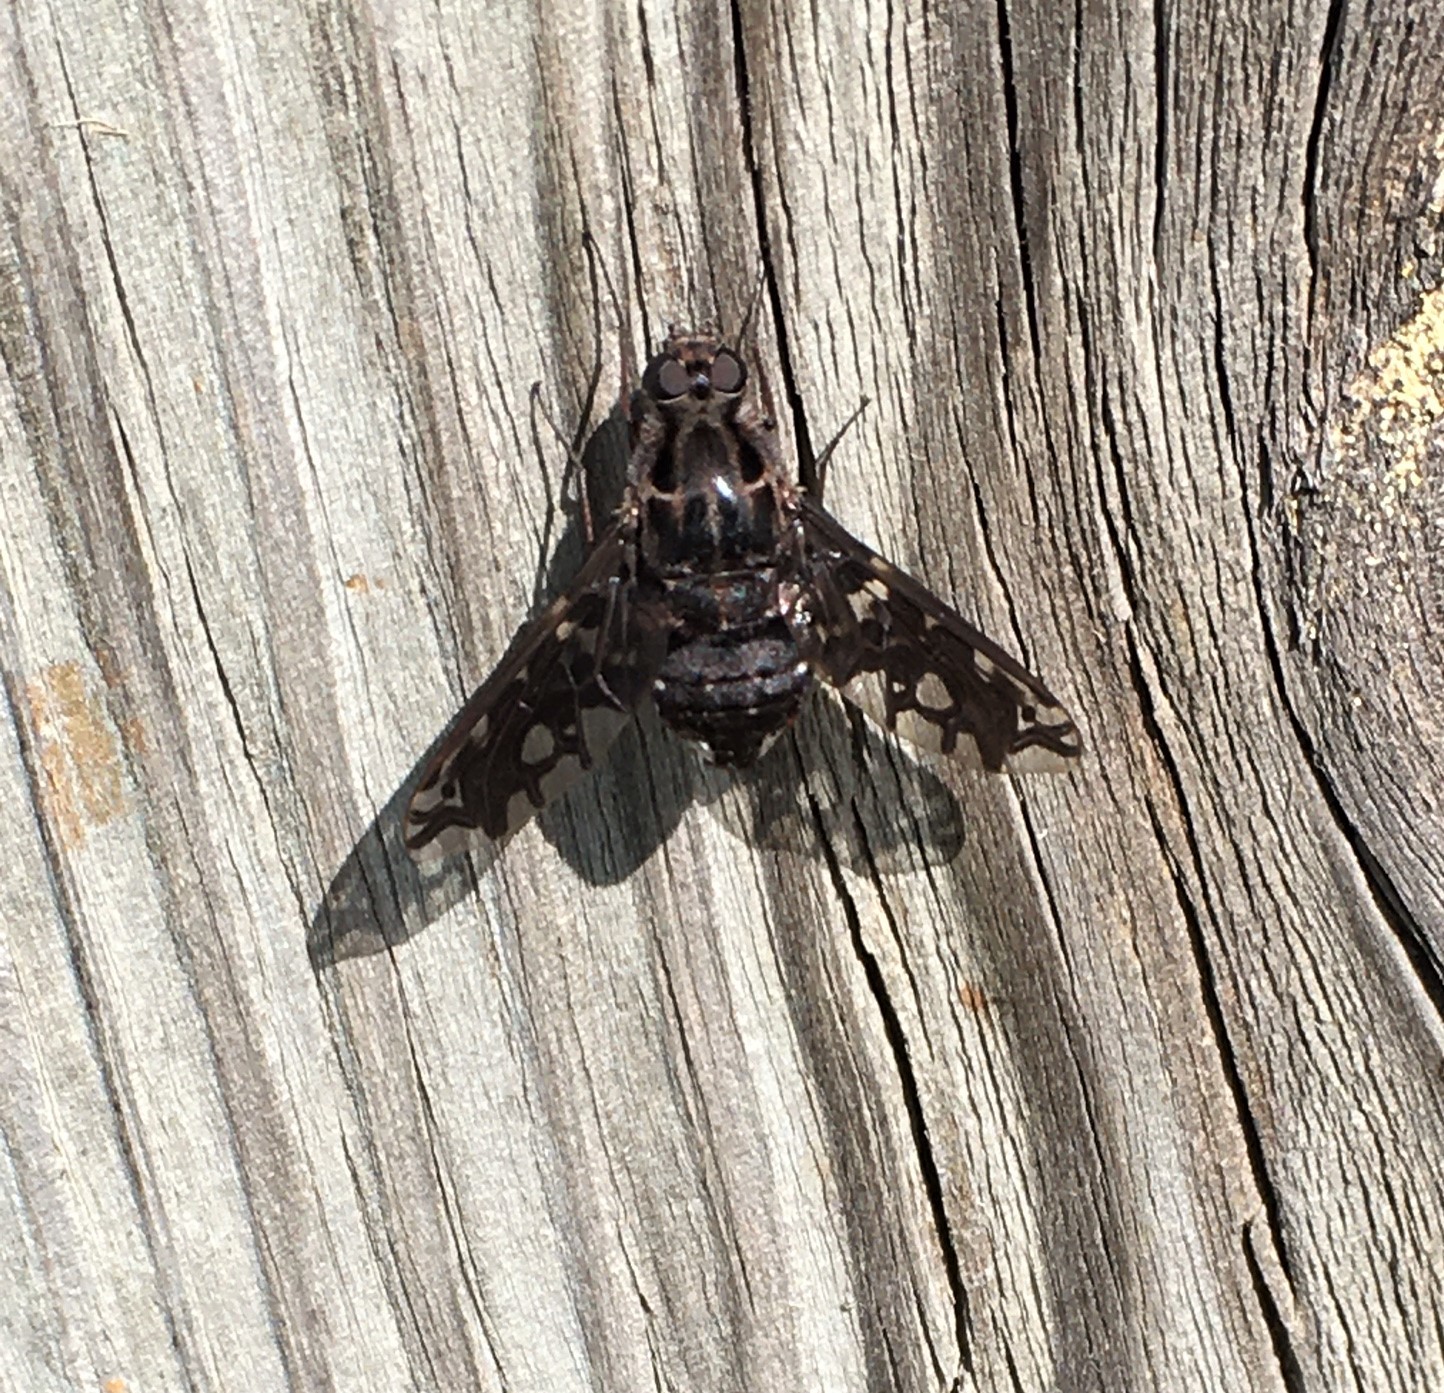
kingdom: Animalia
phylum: Arthropoda
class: Insecta
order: Diptera
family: Bombyliidae
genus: Xenox
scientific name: Xenox tigrinus
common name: Tiger bee fly
